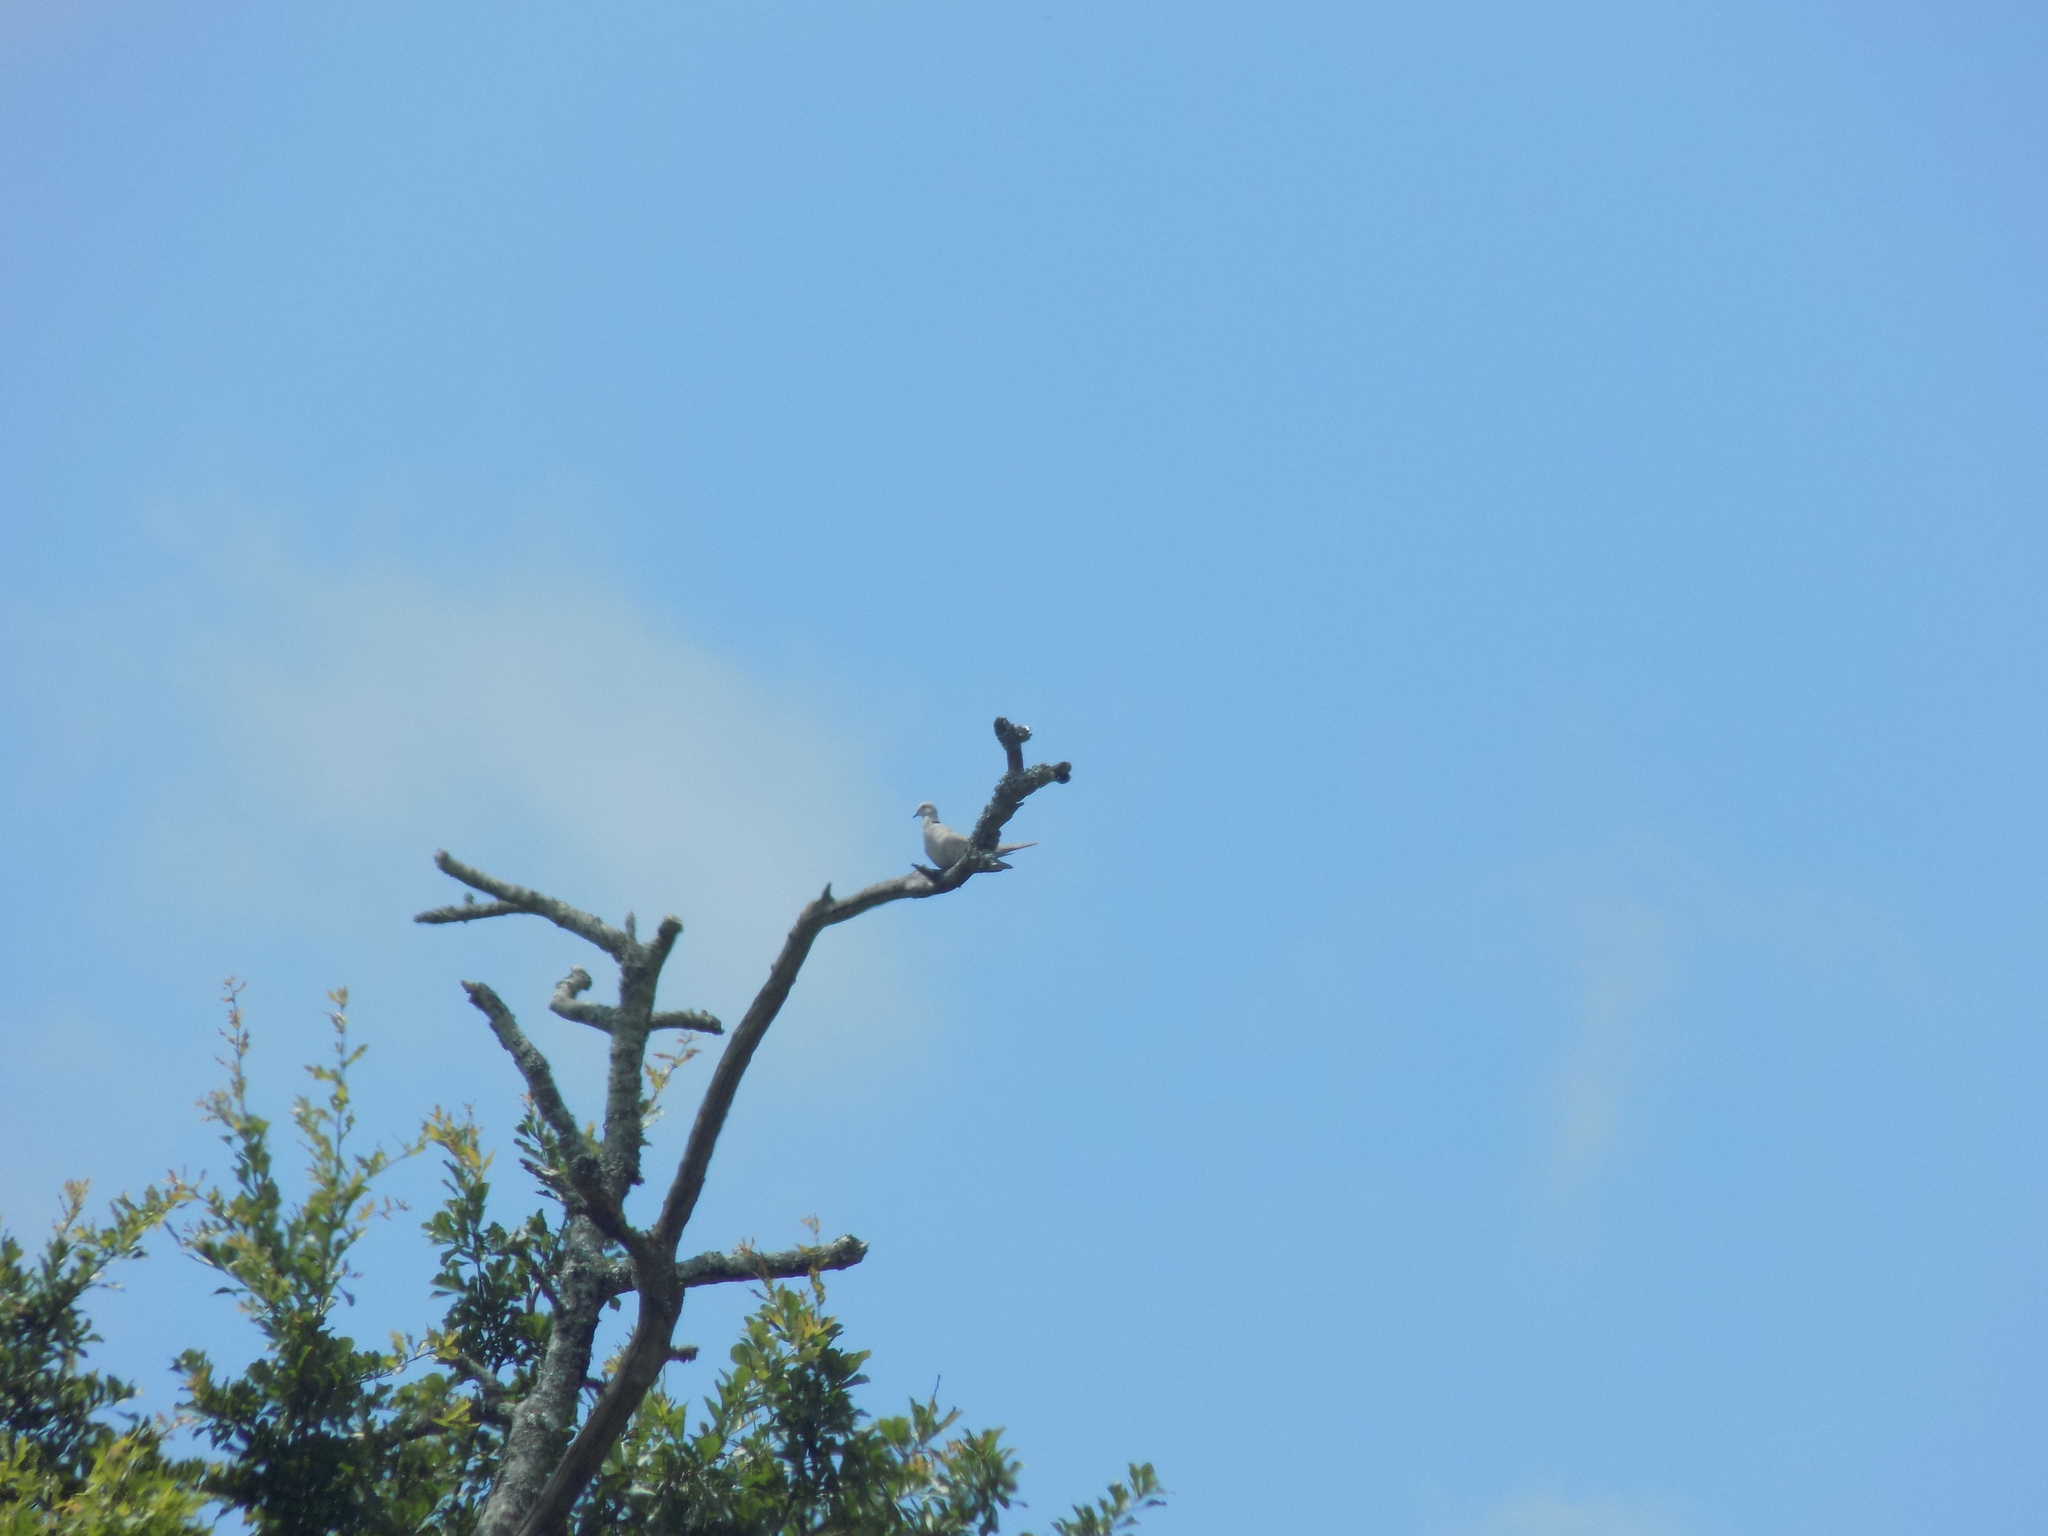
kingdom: Animalia
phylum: Chordata
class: Aves
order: Columbiformes
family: Columbidae
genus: Streptopelia
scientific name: Streptopelia decaocto
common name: Eurasian collared dove
